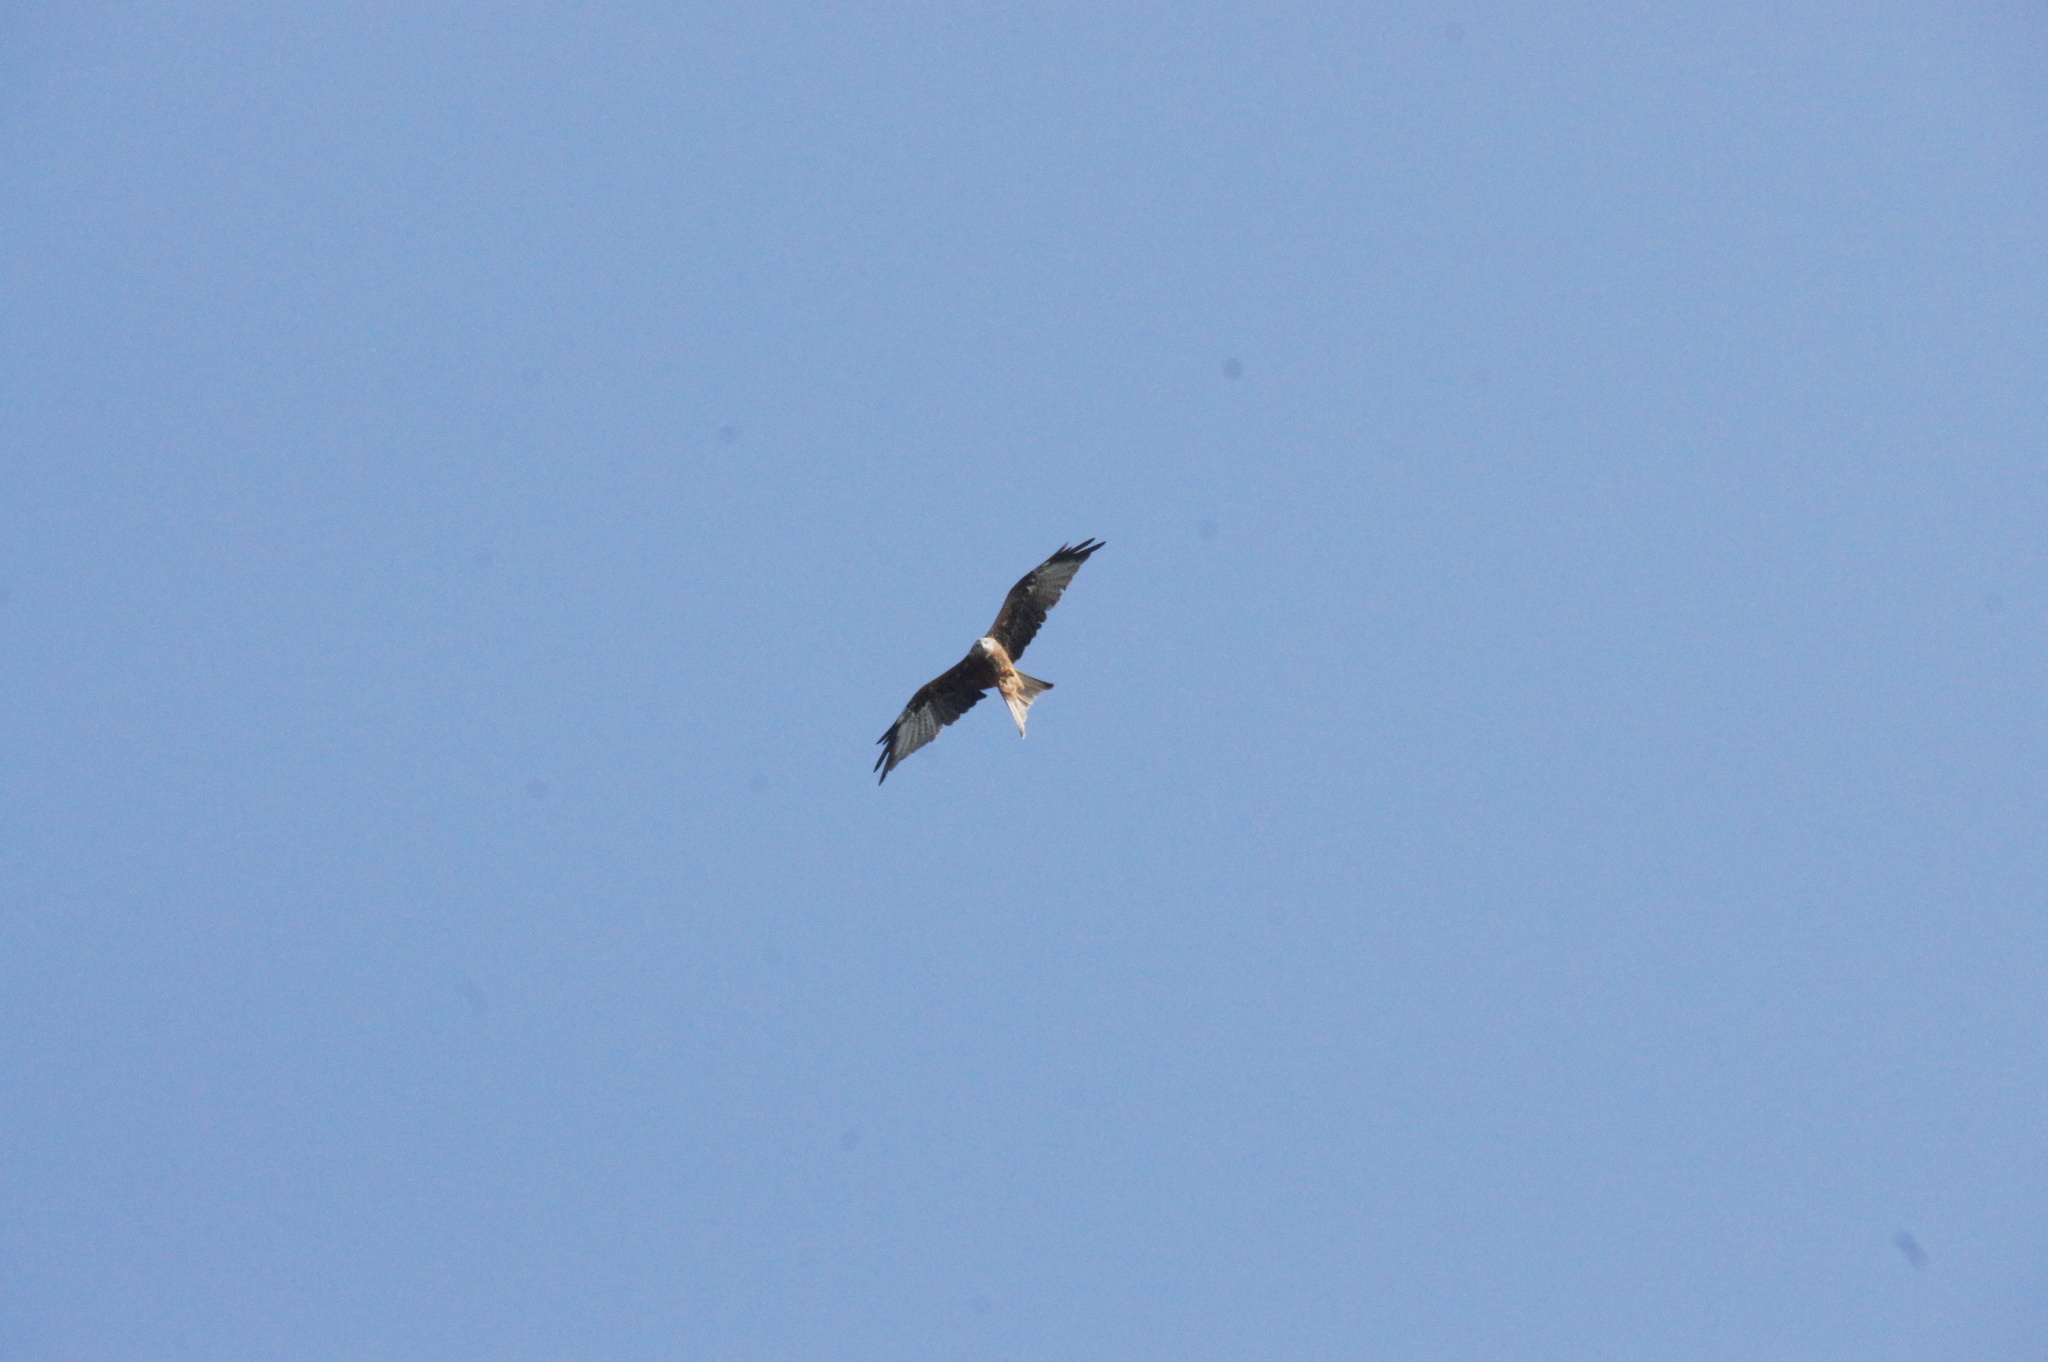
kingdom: Animalia
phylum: Chordata
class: Aves
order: Accipitriformes
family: Accipitridae
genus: Milvus
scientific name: Milvus milvus
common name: Red kite
